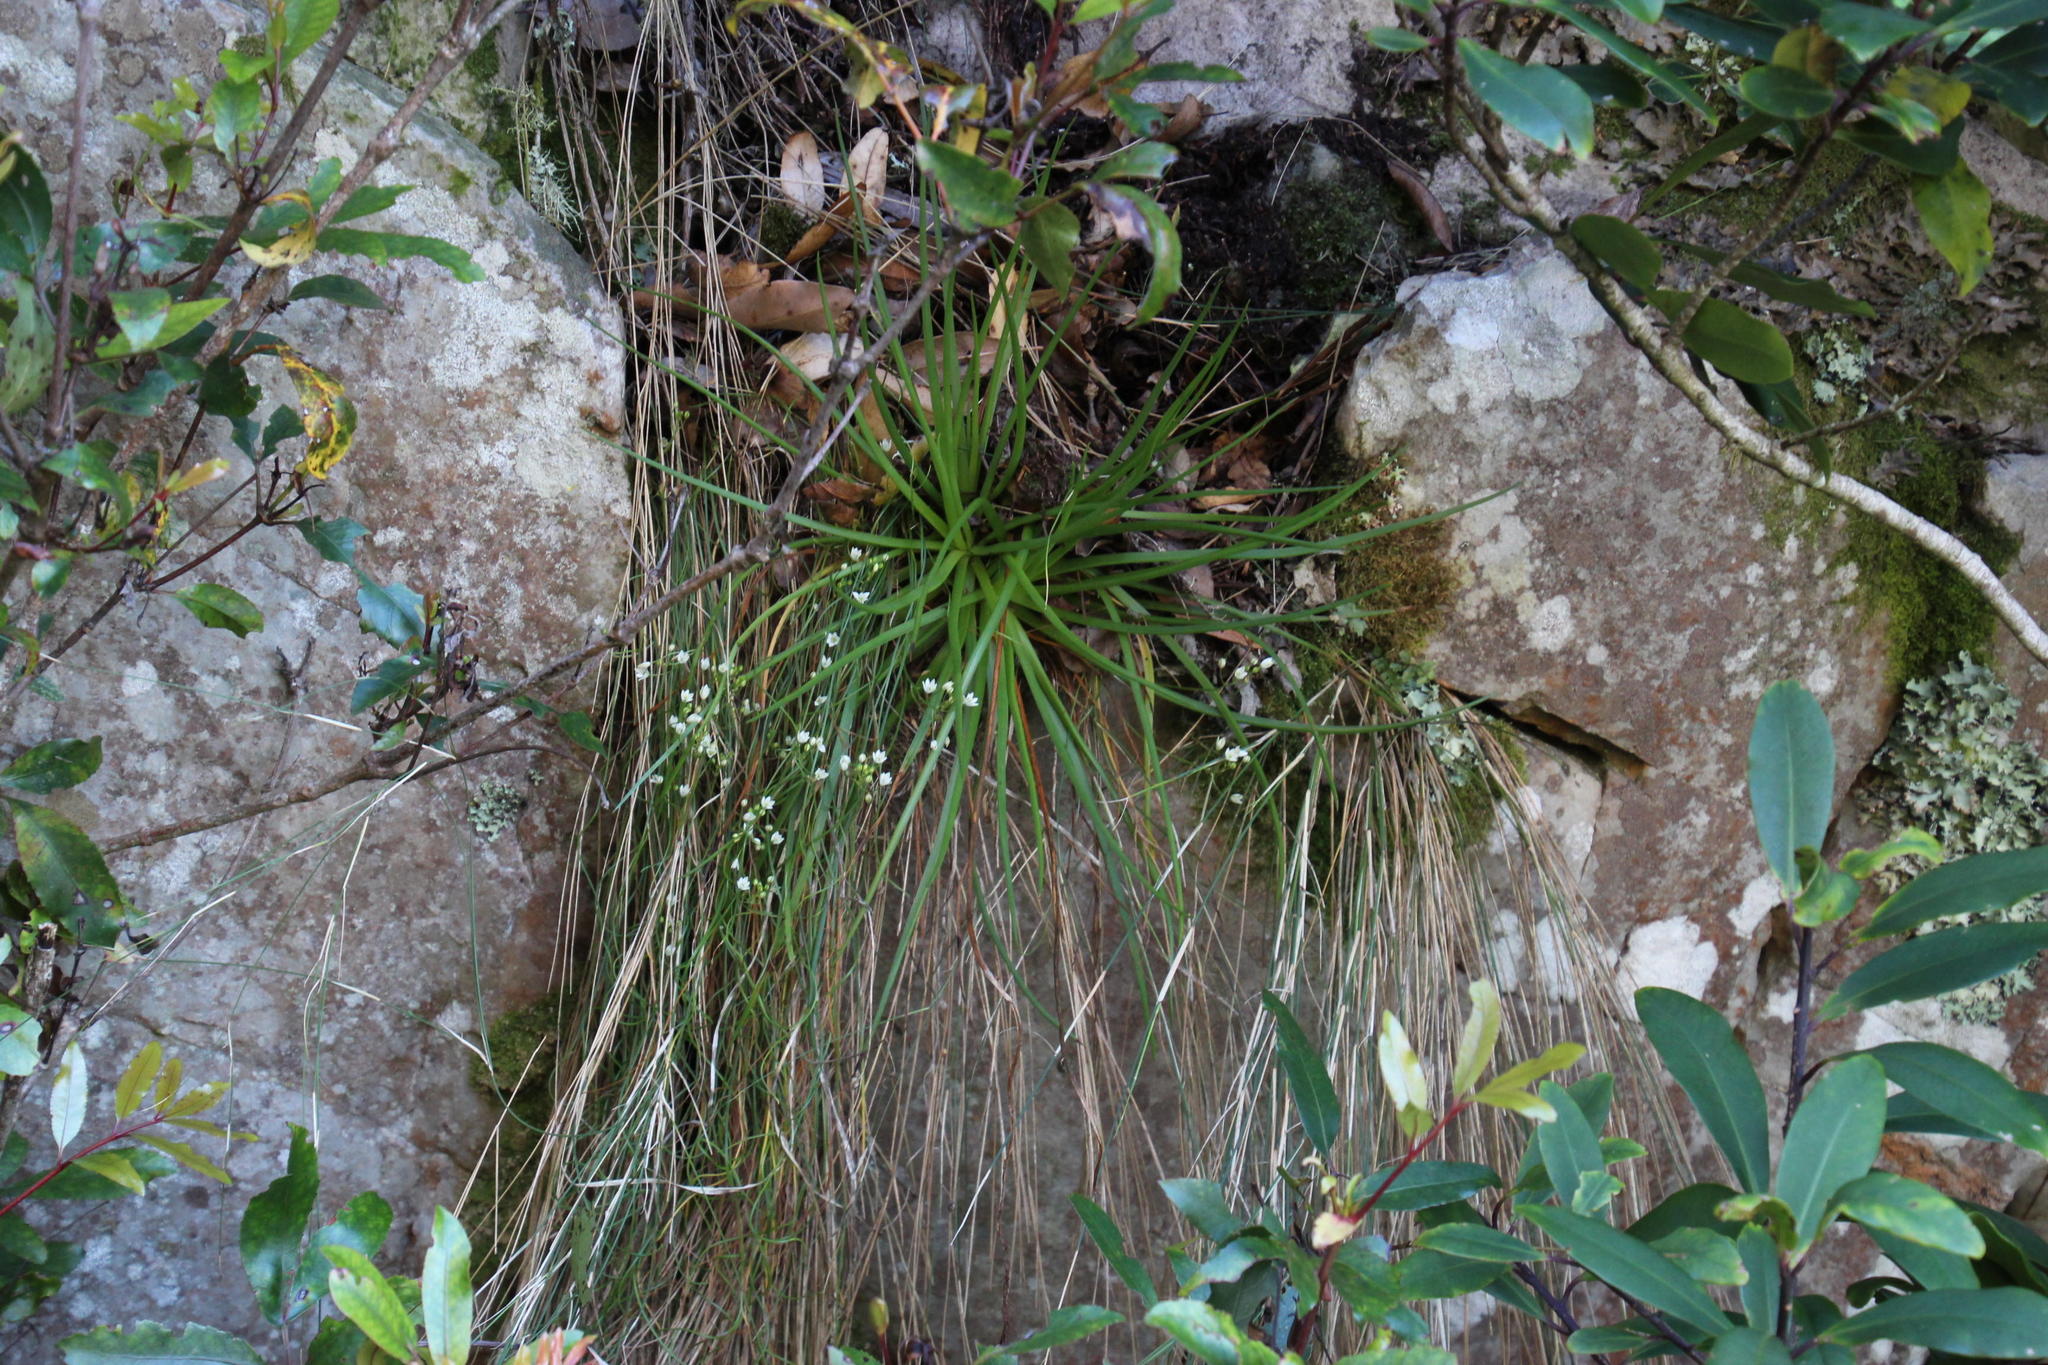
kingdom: Plantae
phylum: Tracheophyta
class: Liliopsida
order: Asparagales
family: Asparagaceae
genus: Ornithogalum
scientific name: Ornithogalum niveum
